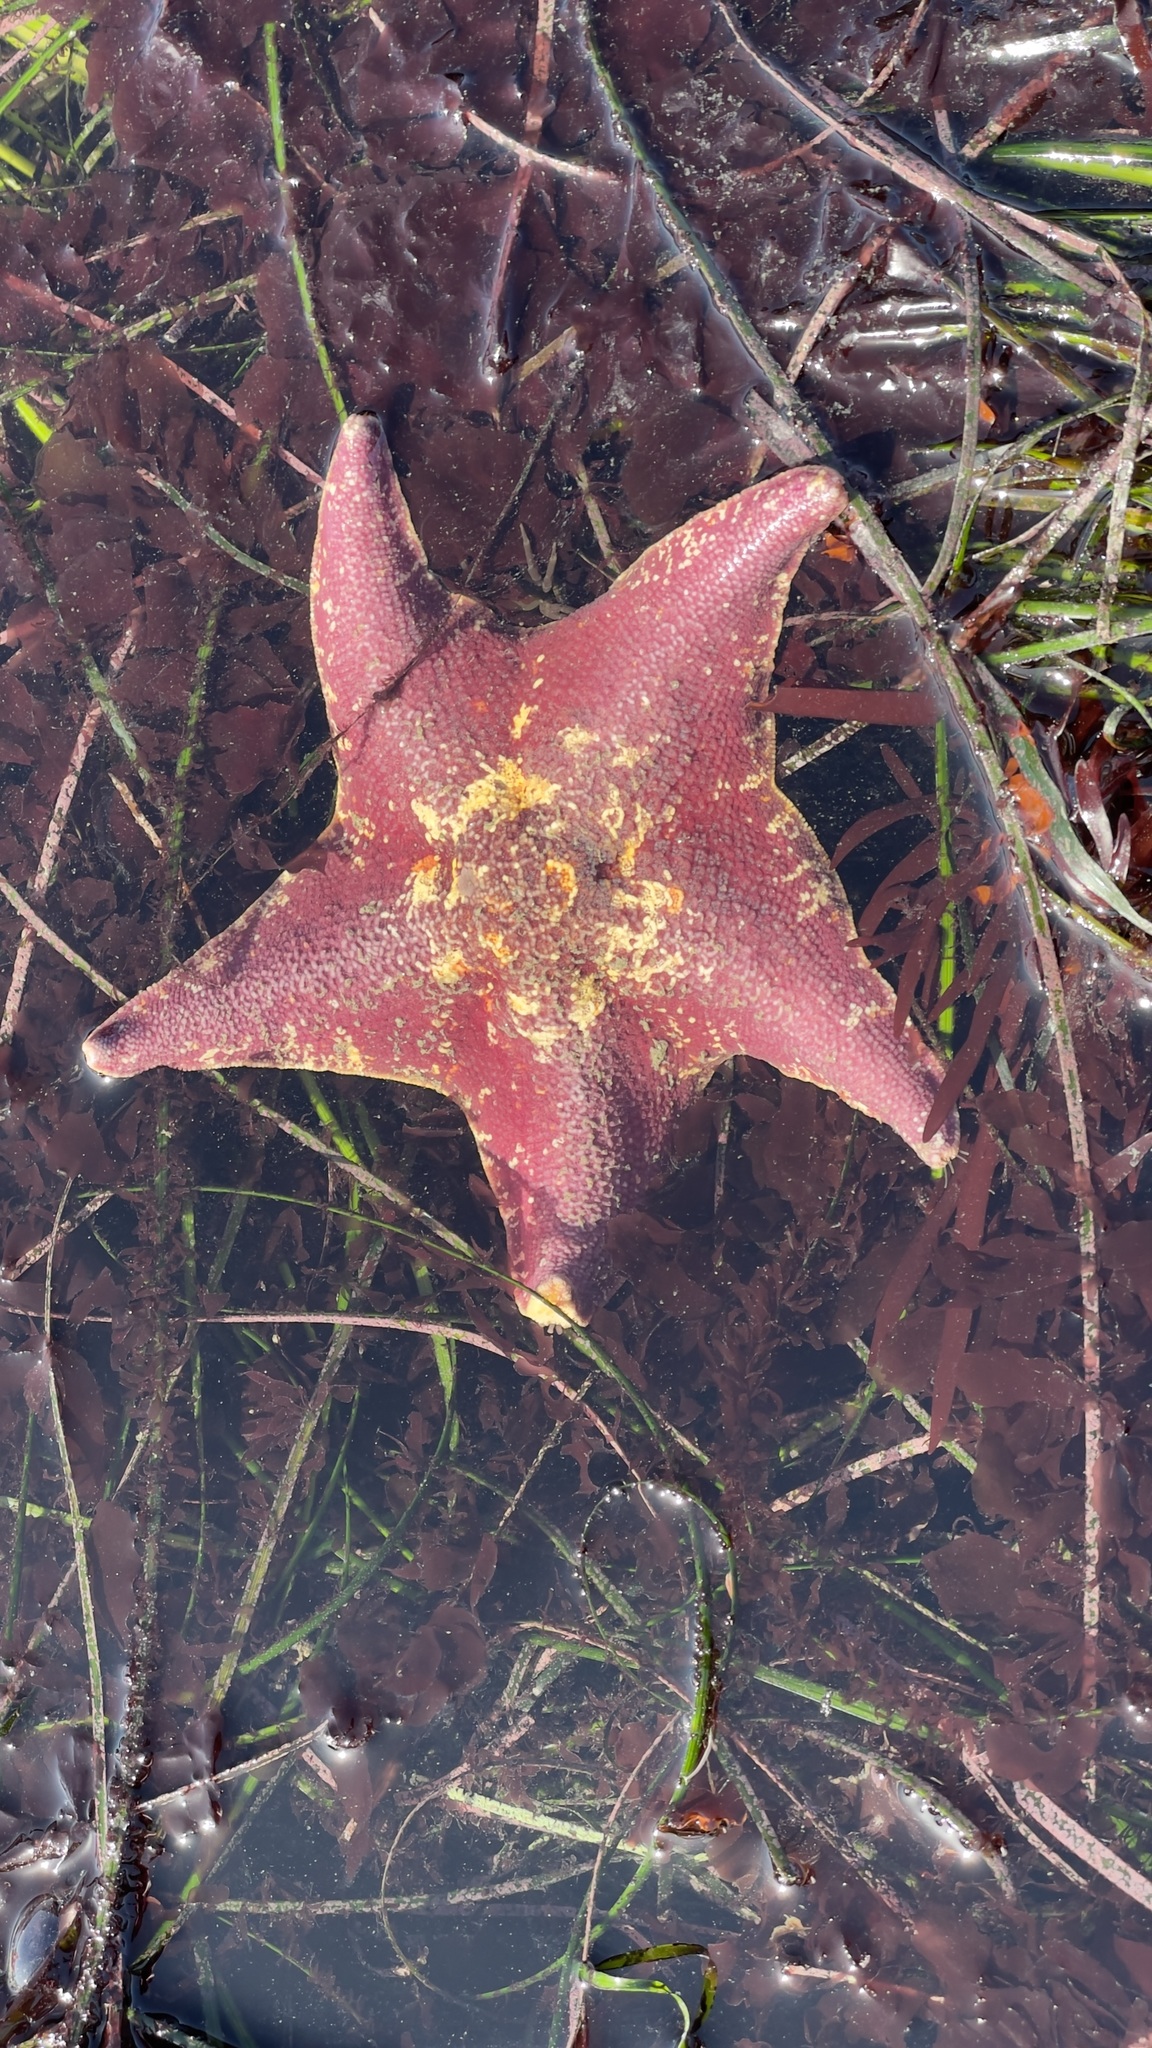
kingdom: Animalia
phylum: Echinodermata
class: Asteroidea
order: Valvatida
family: Asterinidae
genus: Patiria
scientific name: Patiria miniata
